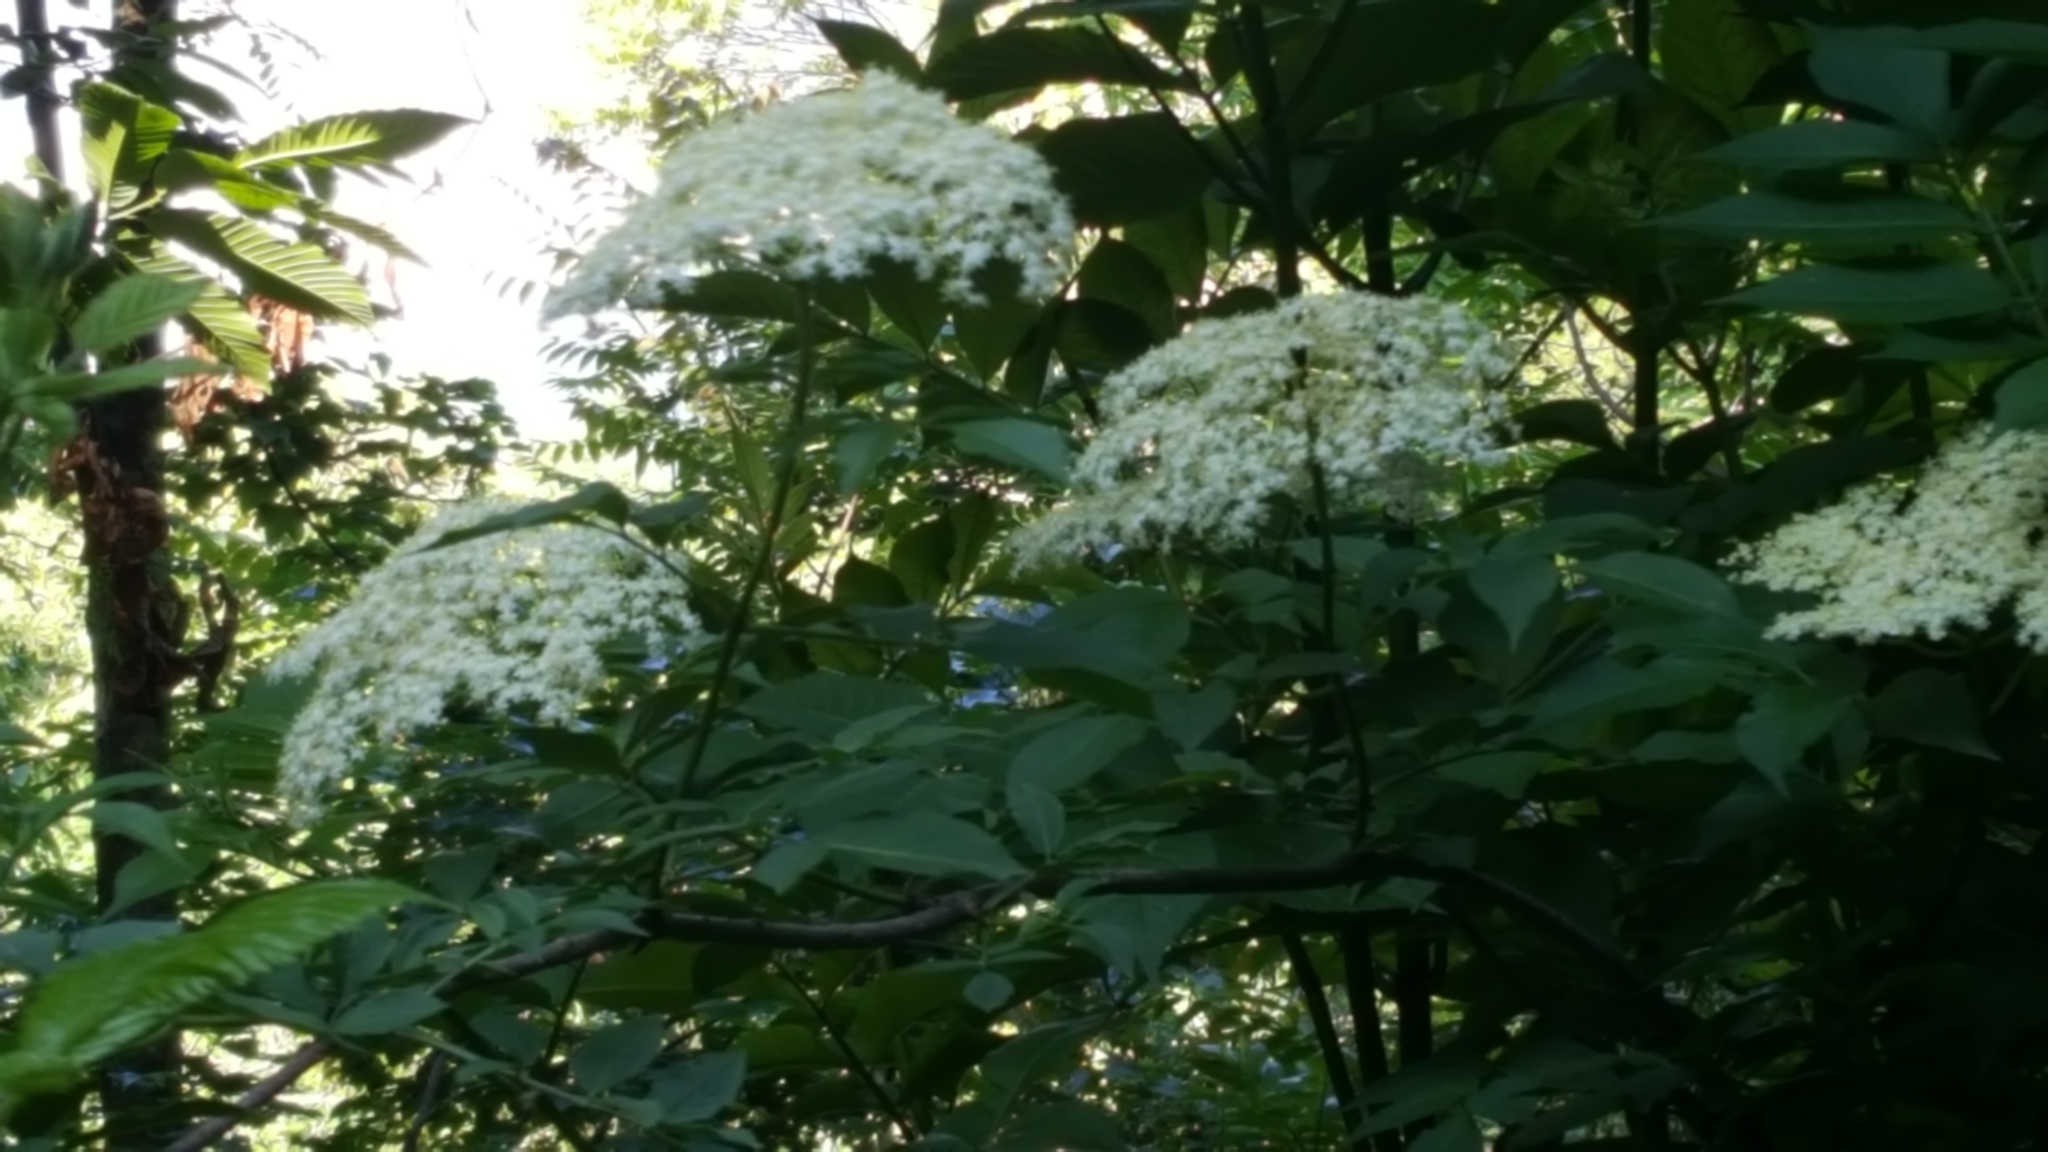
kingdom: Plantae
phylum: Tracheophyta
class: Magnoliopsida
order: Dipsacales
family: Viburnaceae
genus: Sambucus
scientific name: Sambucus nigra
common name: Elder
